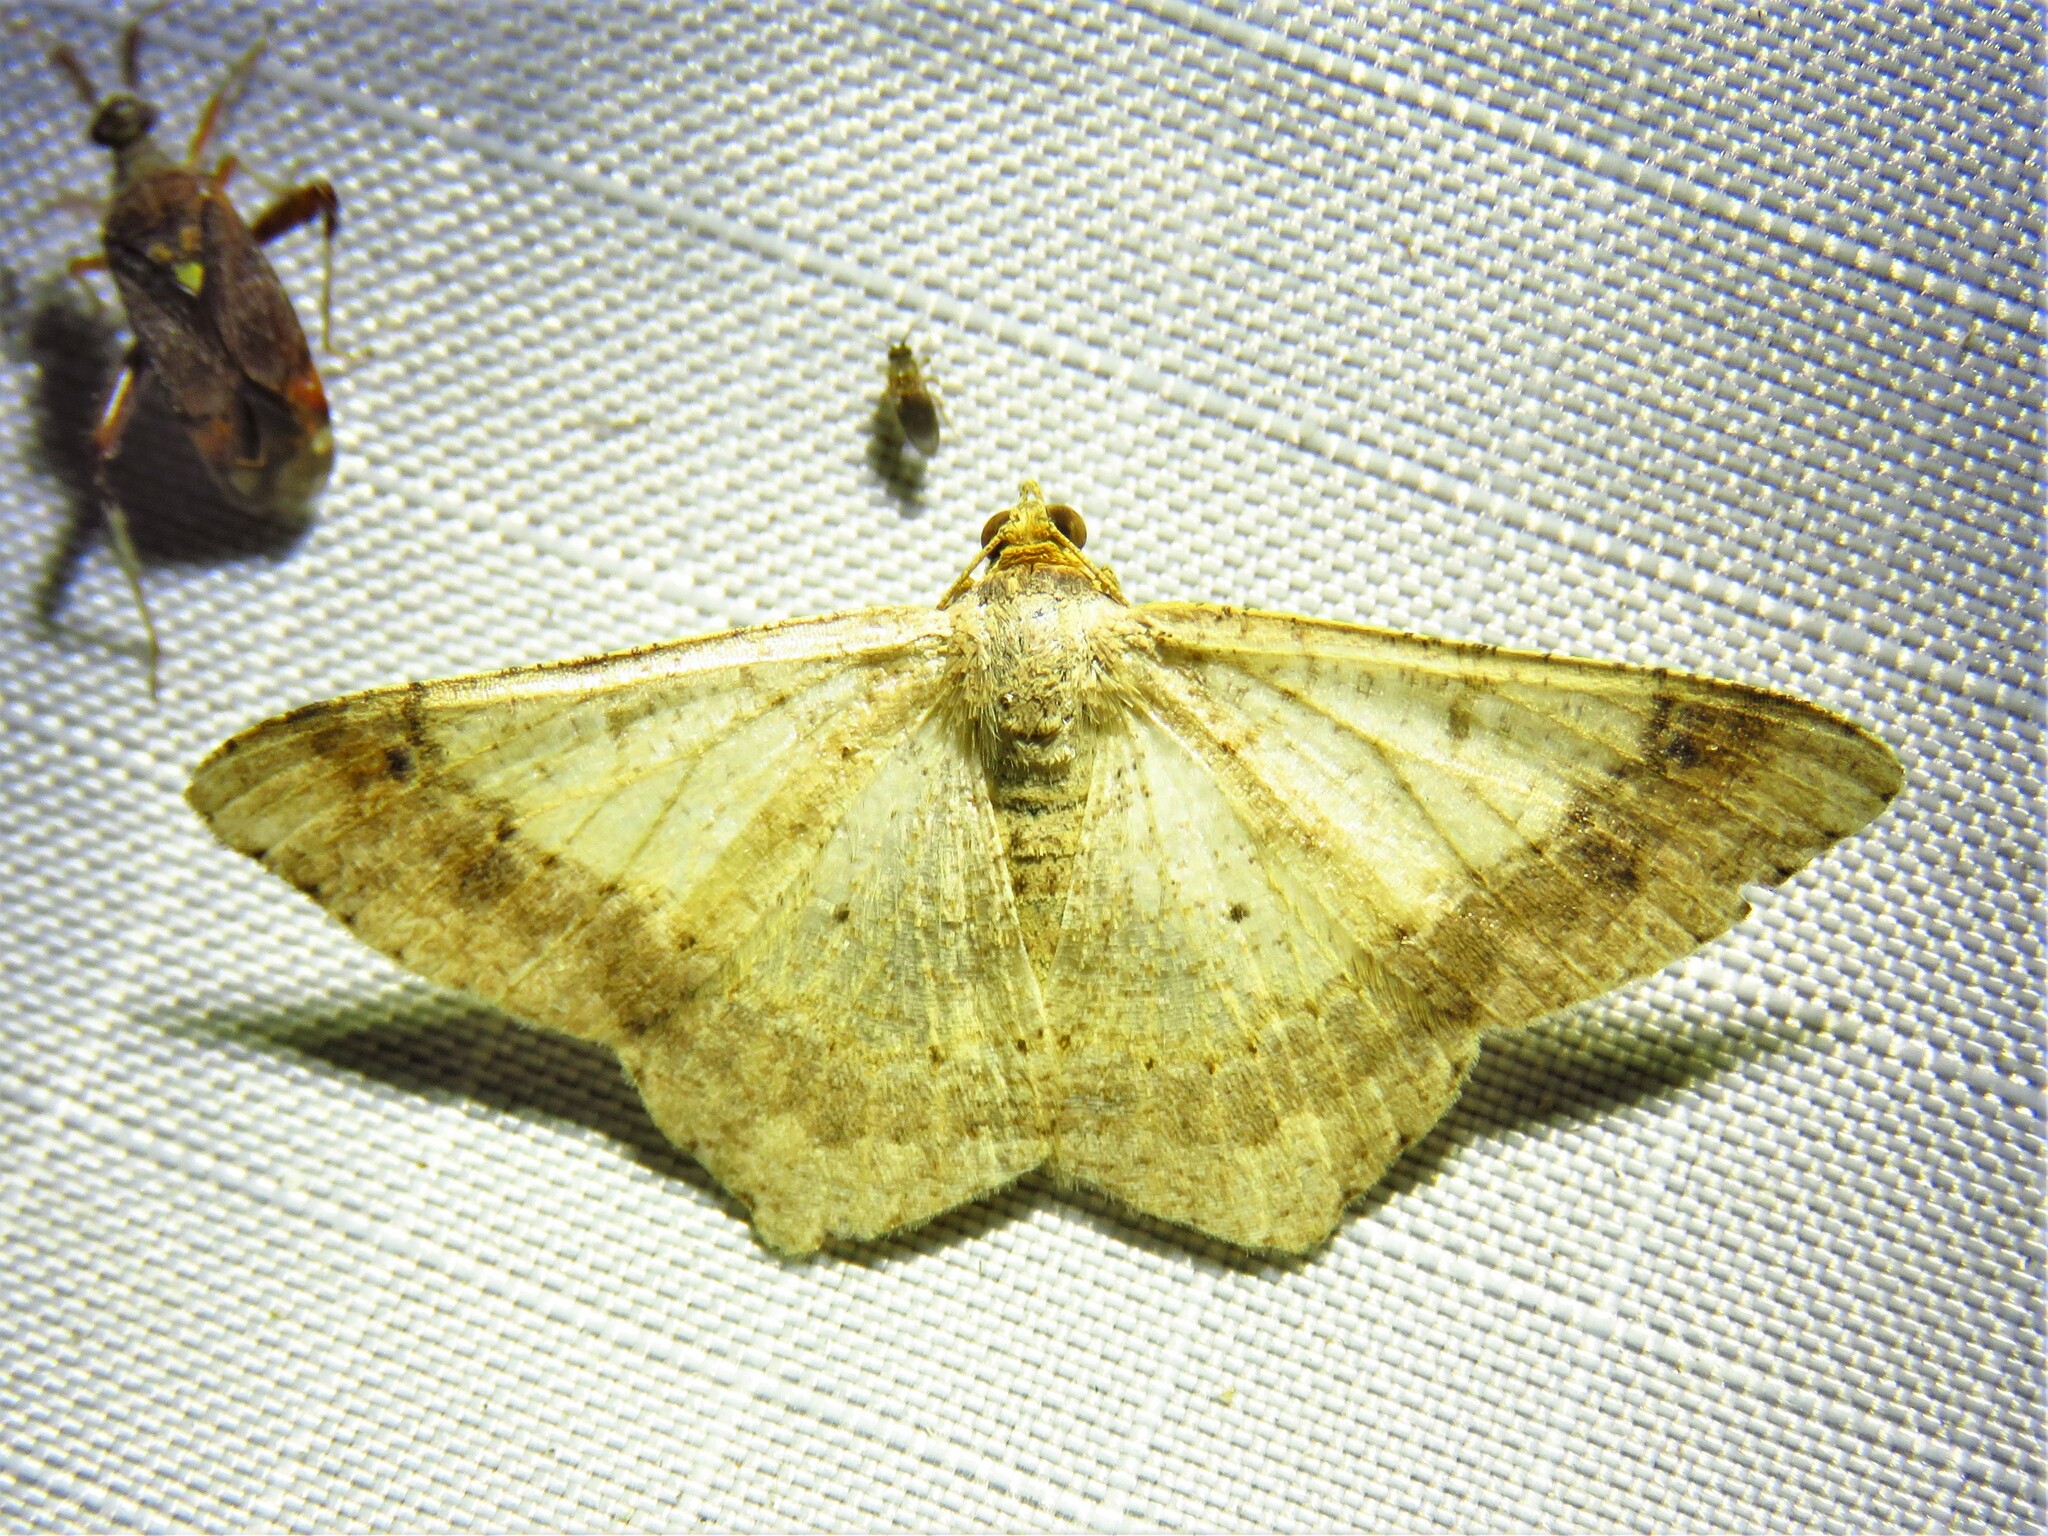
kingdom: Animalia
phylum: Arthropoda
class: Insecta
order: Lepidoptera
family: Geometridae
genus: Macaria
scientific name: Macaria abydata
